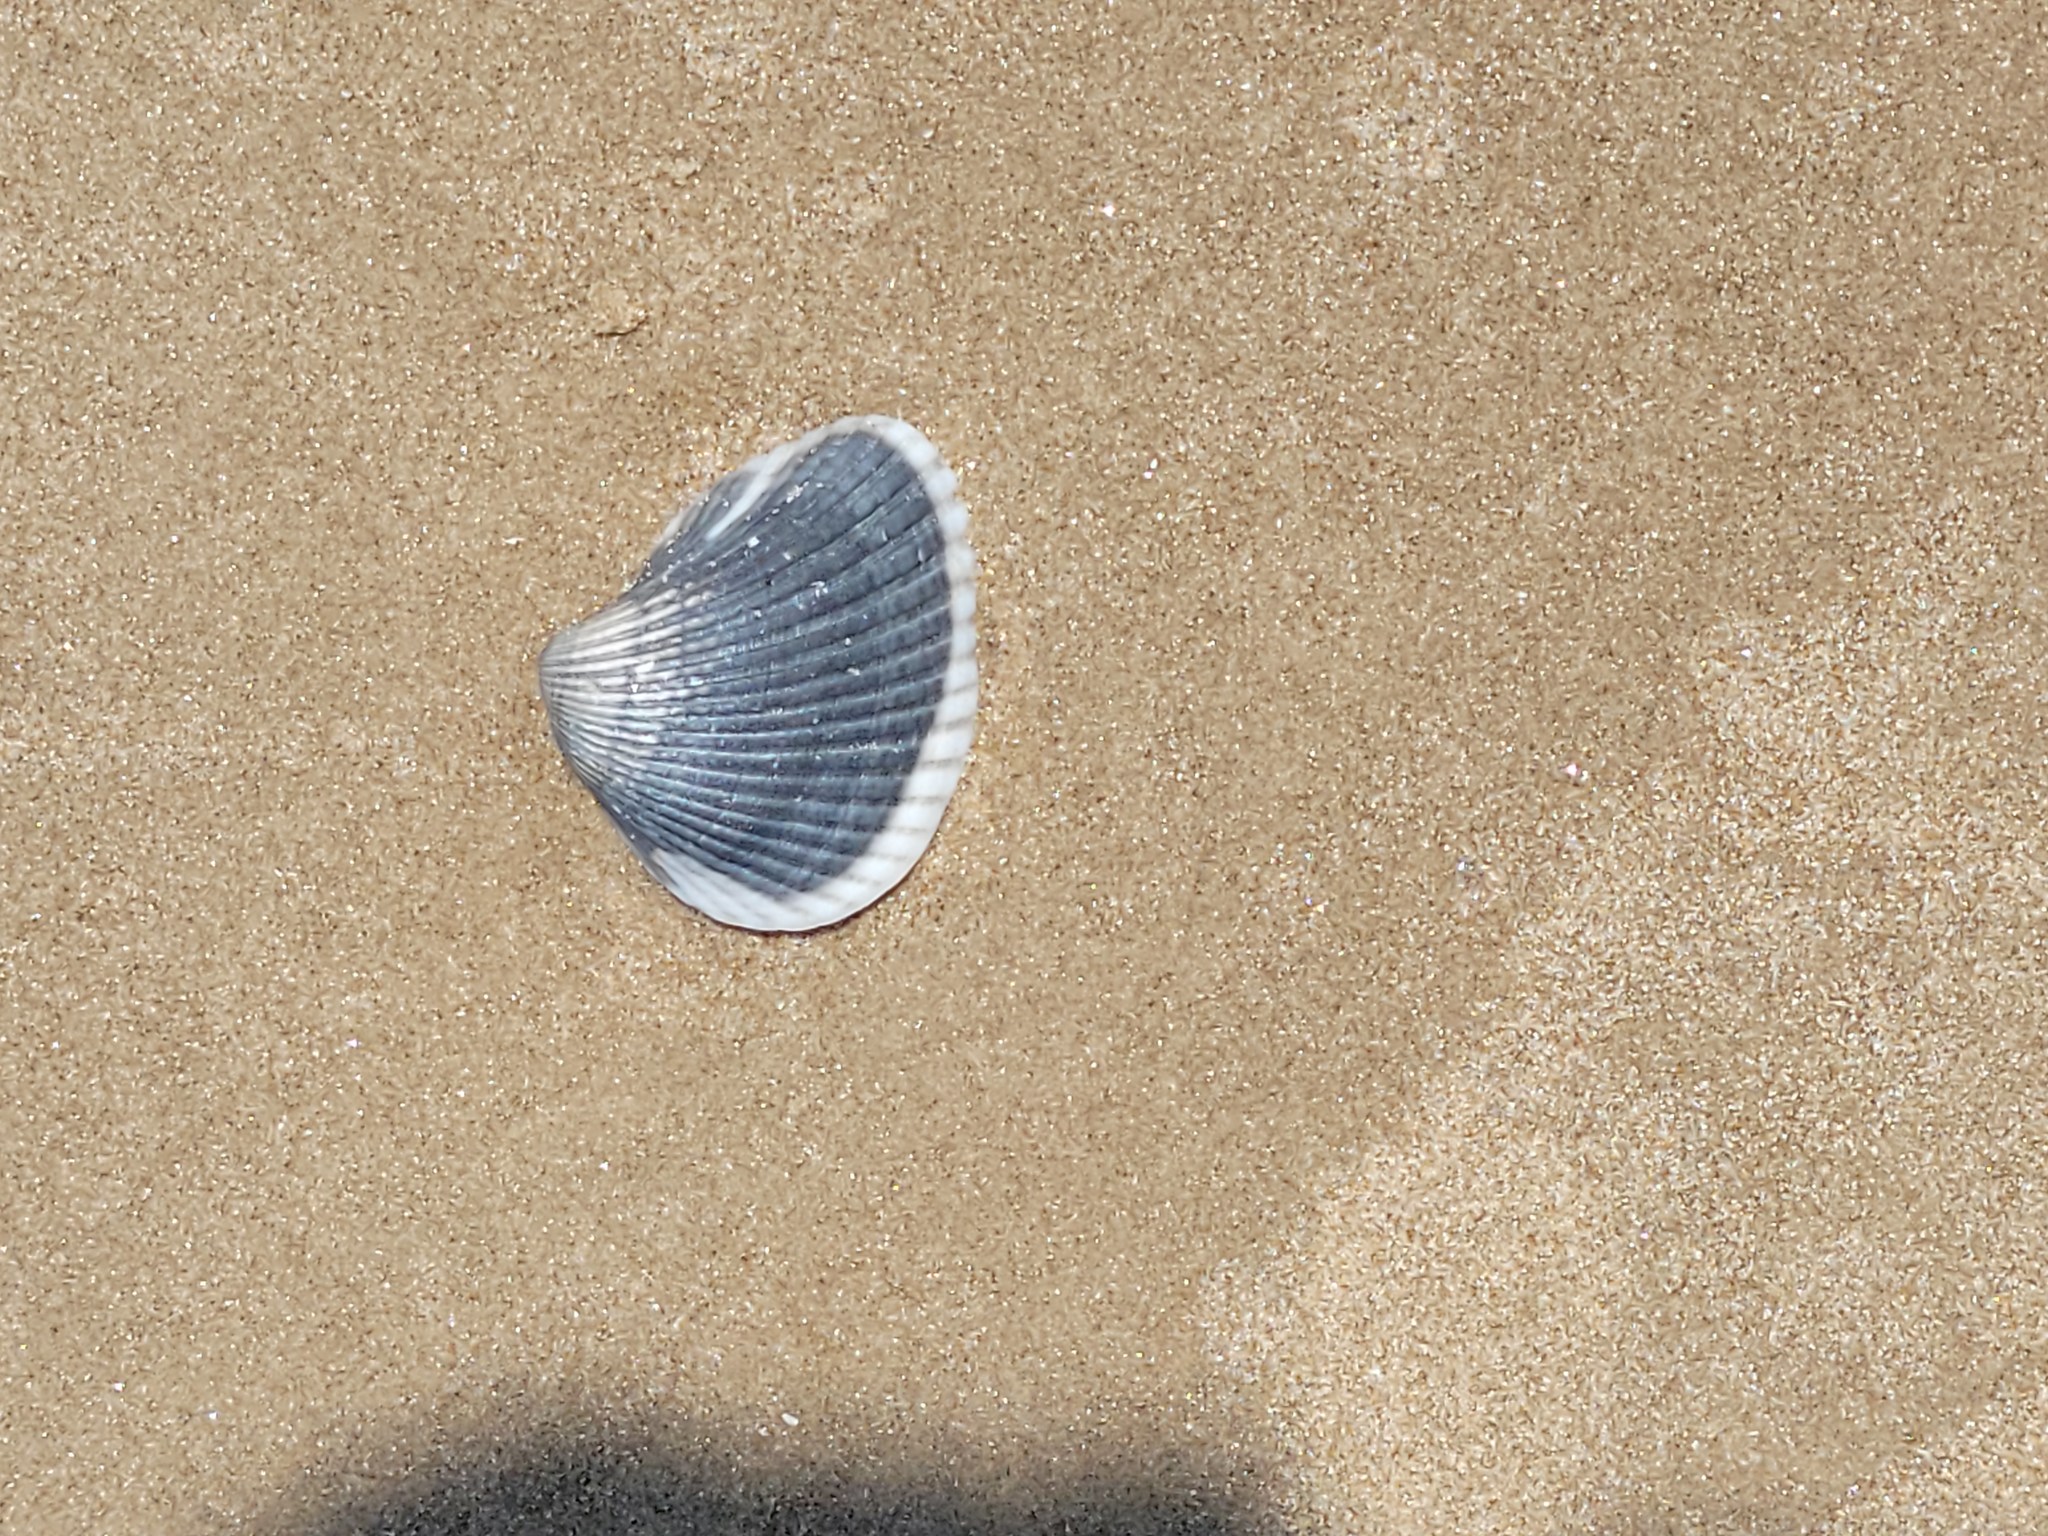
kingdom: Animalia
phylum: Mollusca
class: Bivalvia
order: Arcida
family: Noetiidae
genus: Noetia
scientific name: Noetia ponderosa
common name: Ponderous ark
